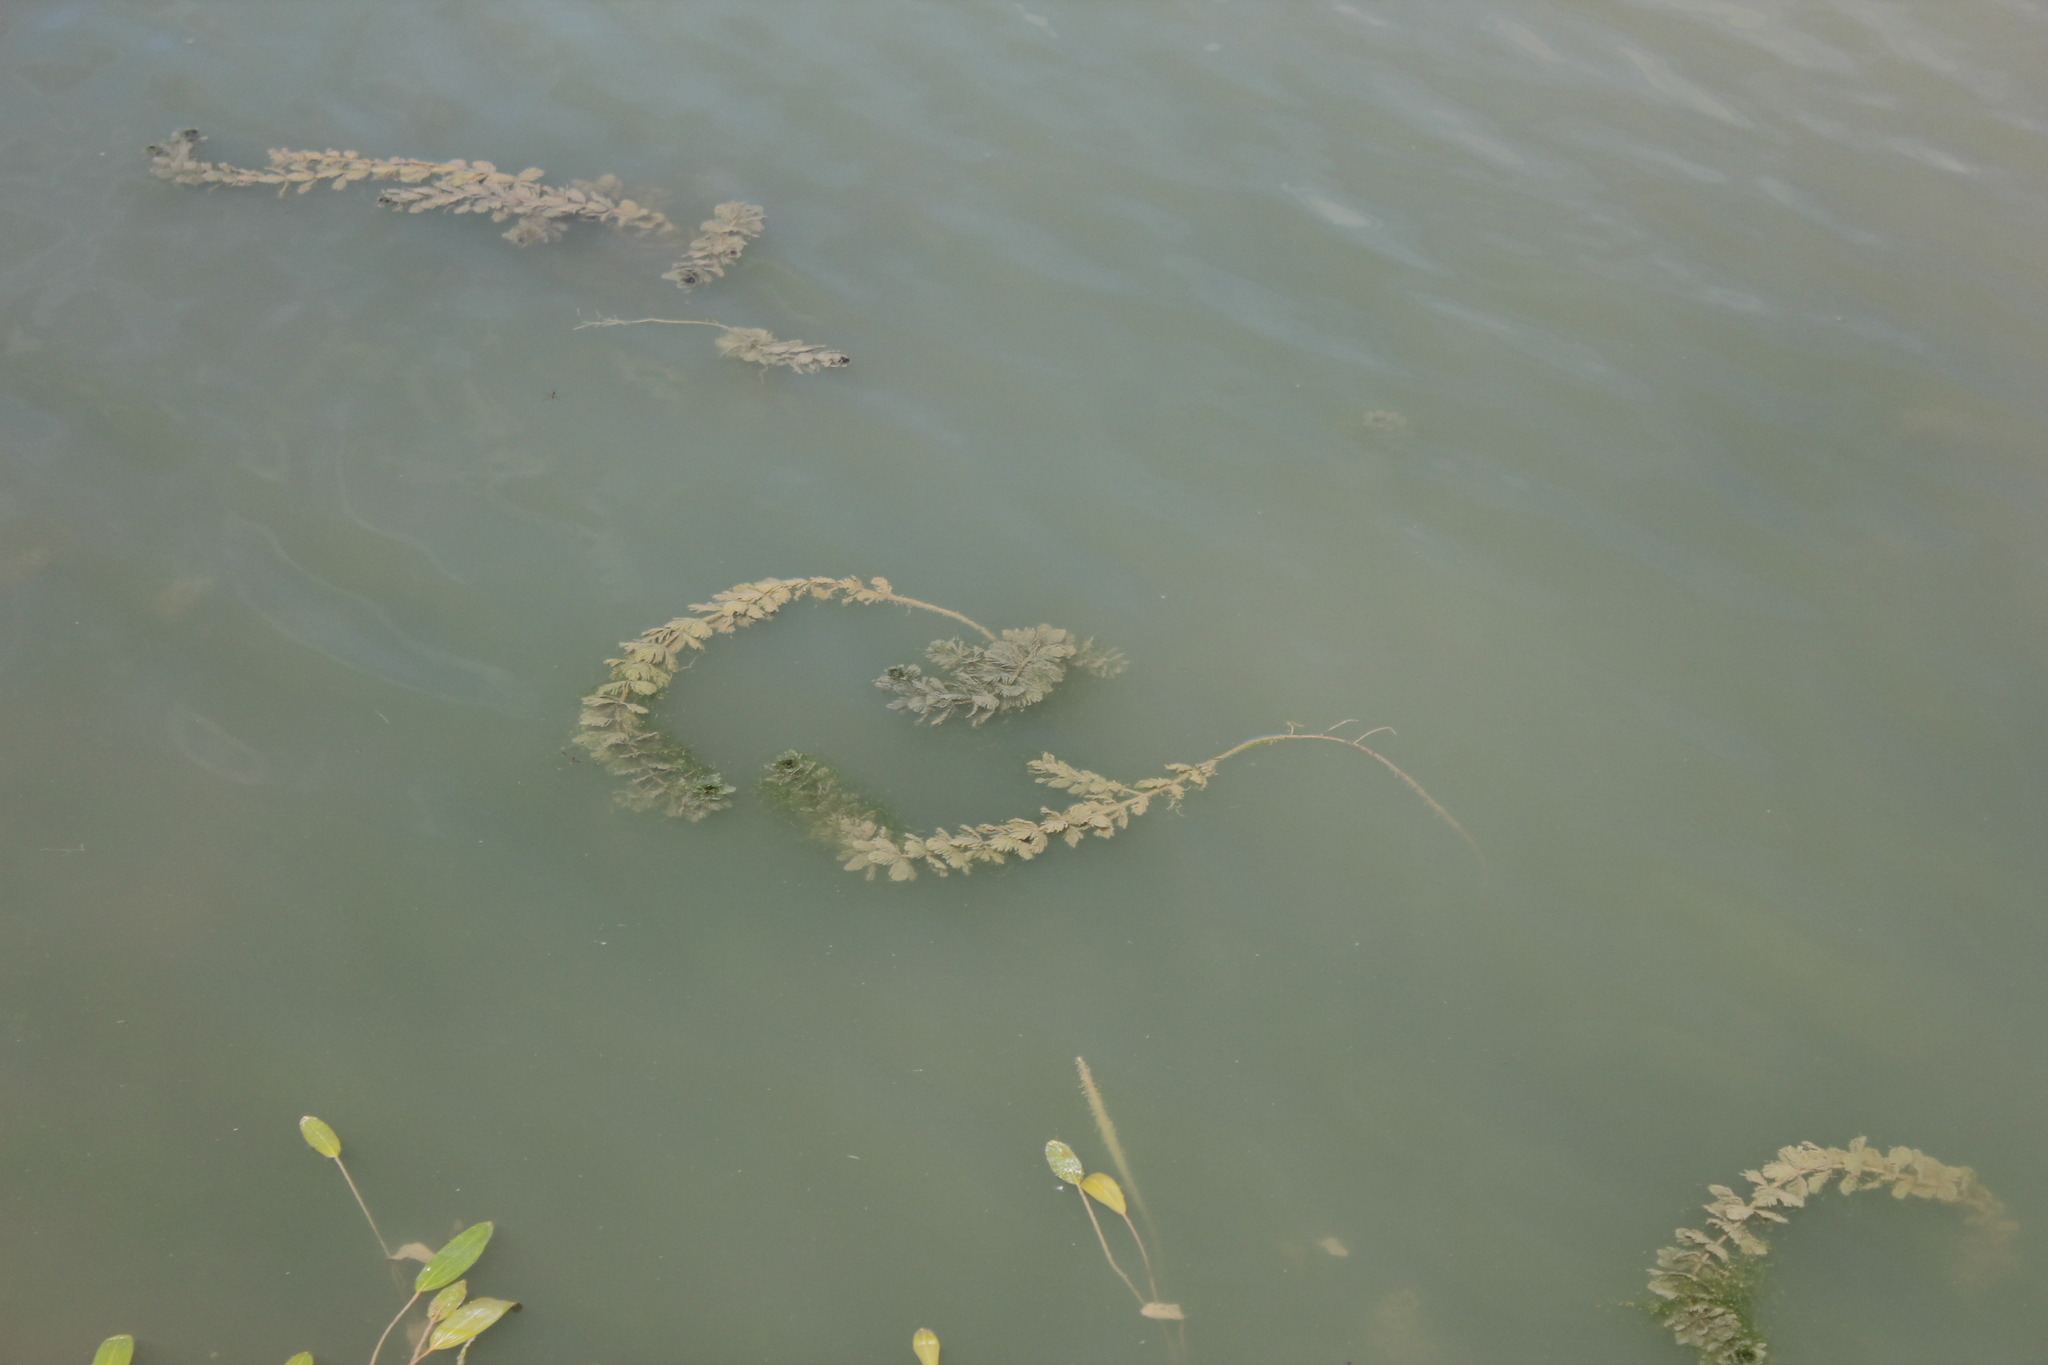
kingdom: Plantae
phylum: Tracheophyta
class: Magnoliopsida
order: Saxifragales
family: Haloragaceae
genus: Myriophyllum
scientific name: Myriophyllum spicatum
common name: Spiked water-milfoil
